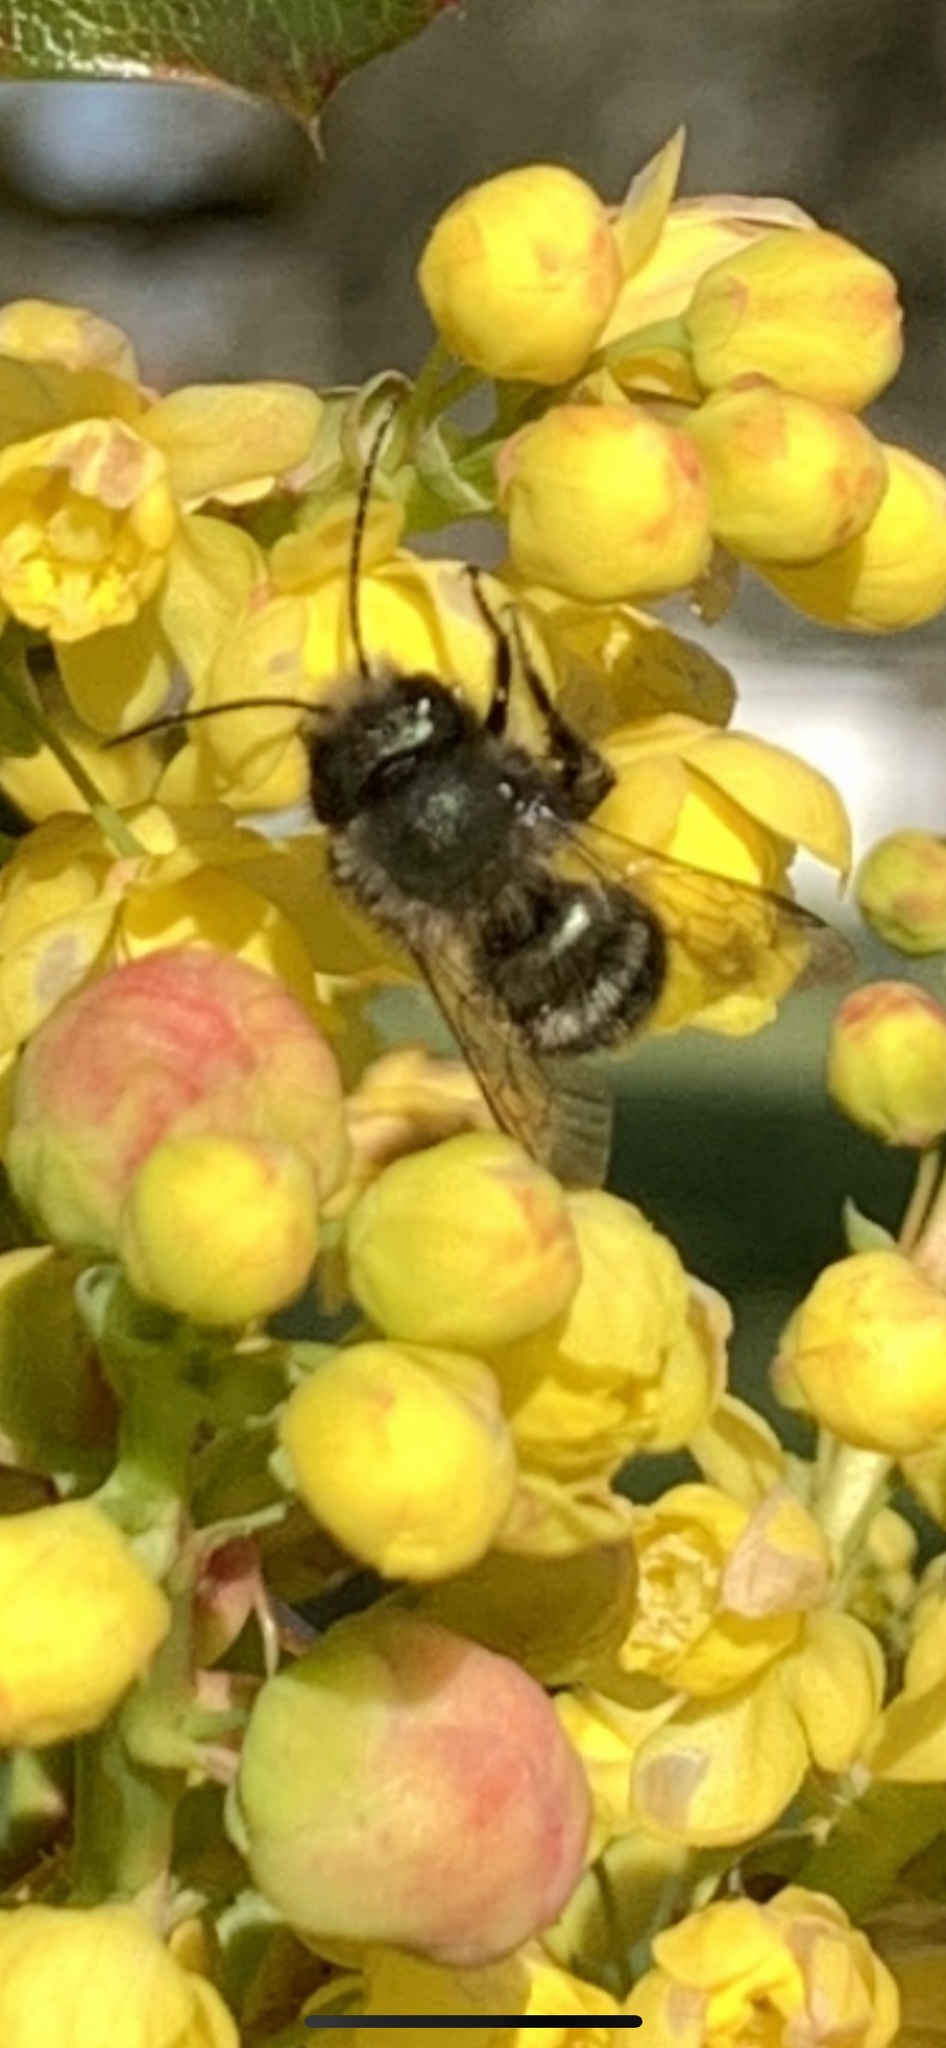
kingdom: Animalia
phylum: Arthropoda
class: Insecta
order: Hymenoptera
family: Megachilidae
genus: Osmia
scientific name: Osmia lignaria
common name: Blue orchard bee
